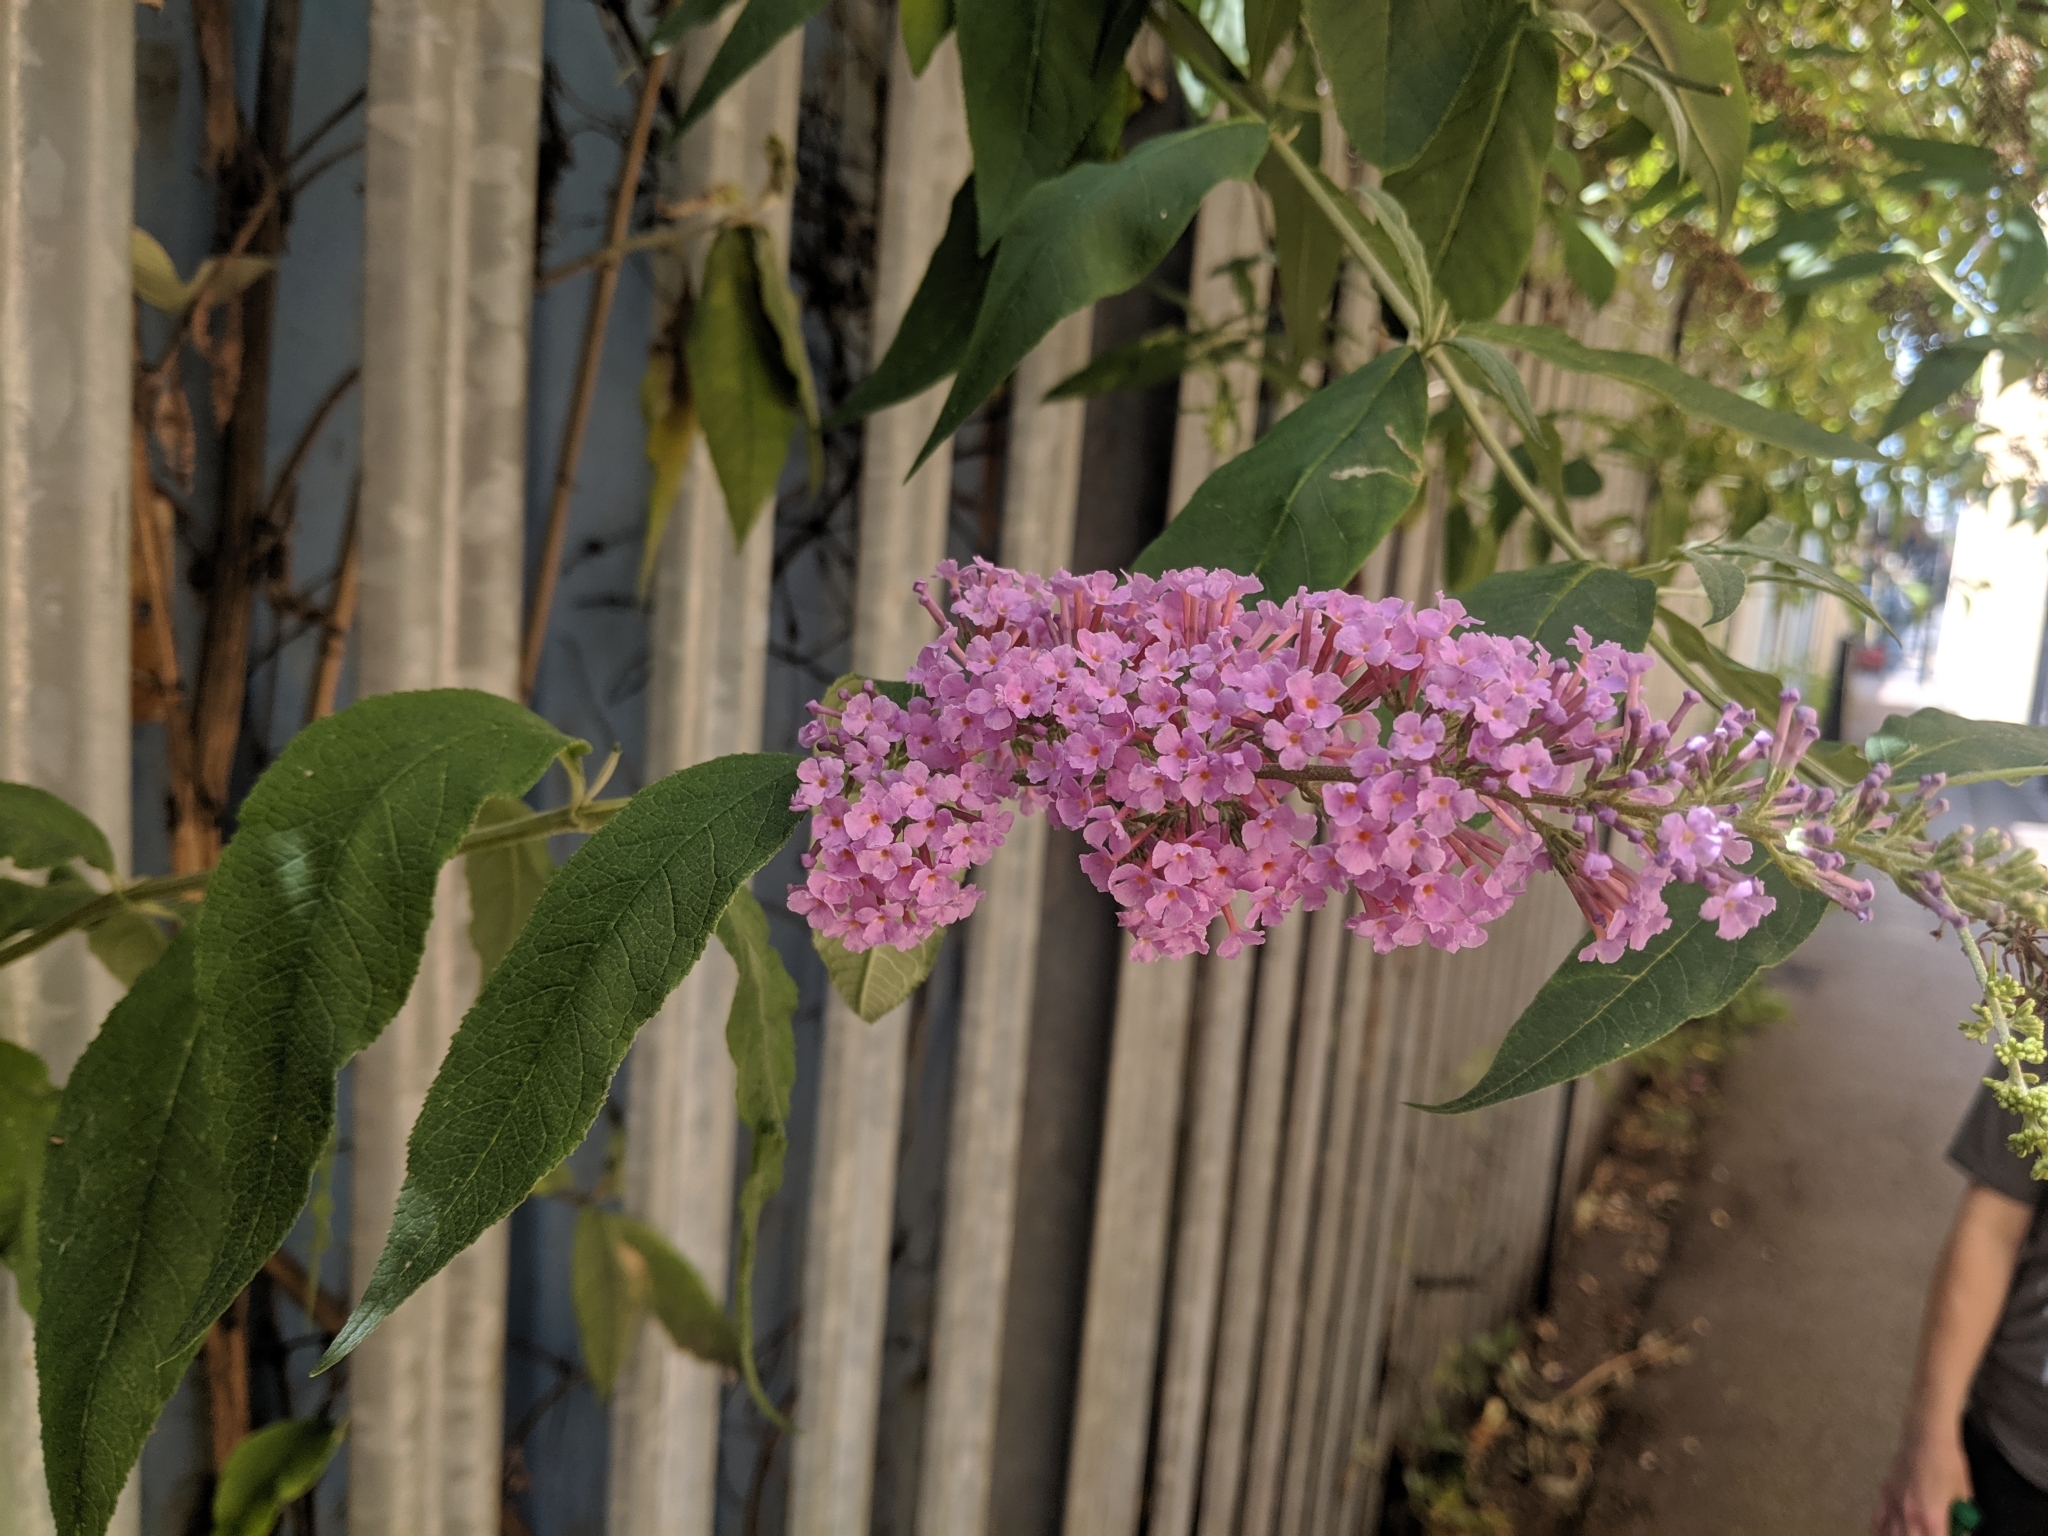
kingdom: Plantae
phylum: Tracheophyta
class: Magnoliopsida
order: Lamiales
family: Scrophulariaceae
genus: Buddleja
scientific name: Buddleja davidii
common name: Butterfly-bush
